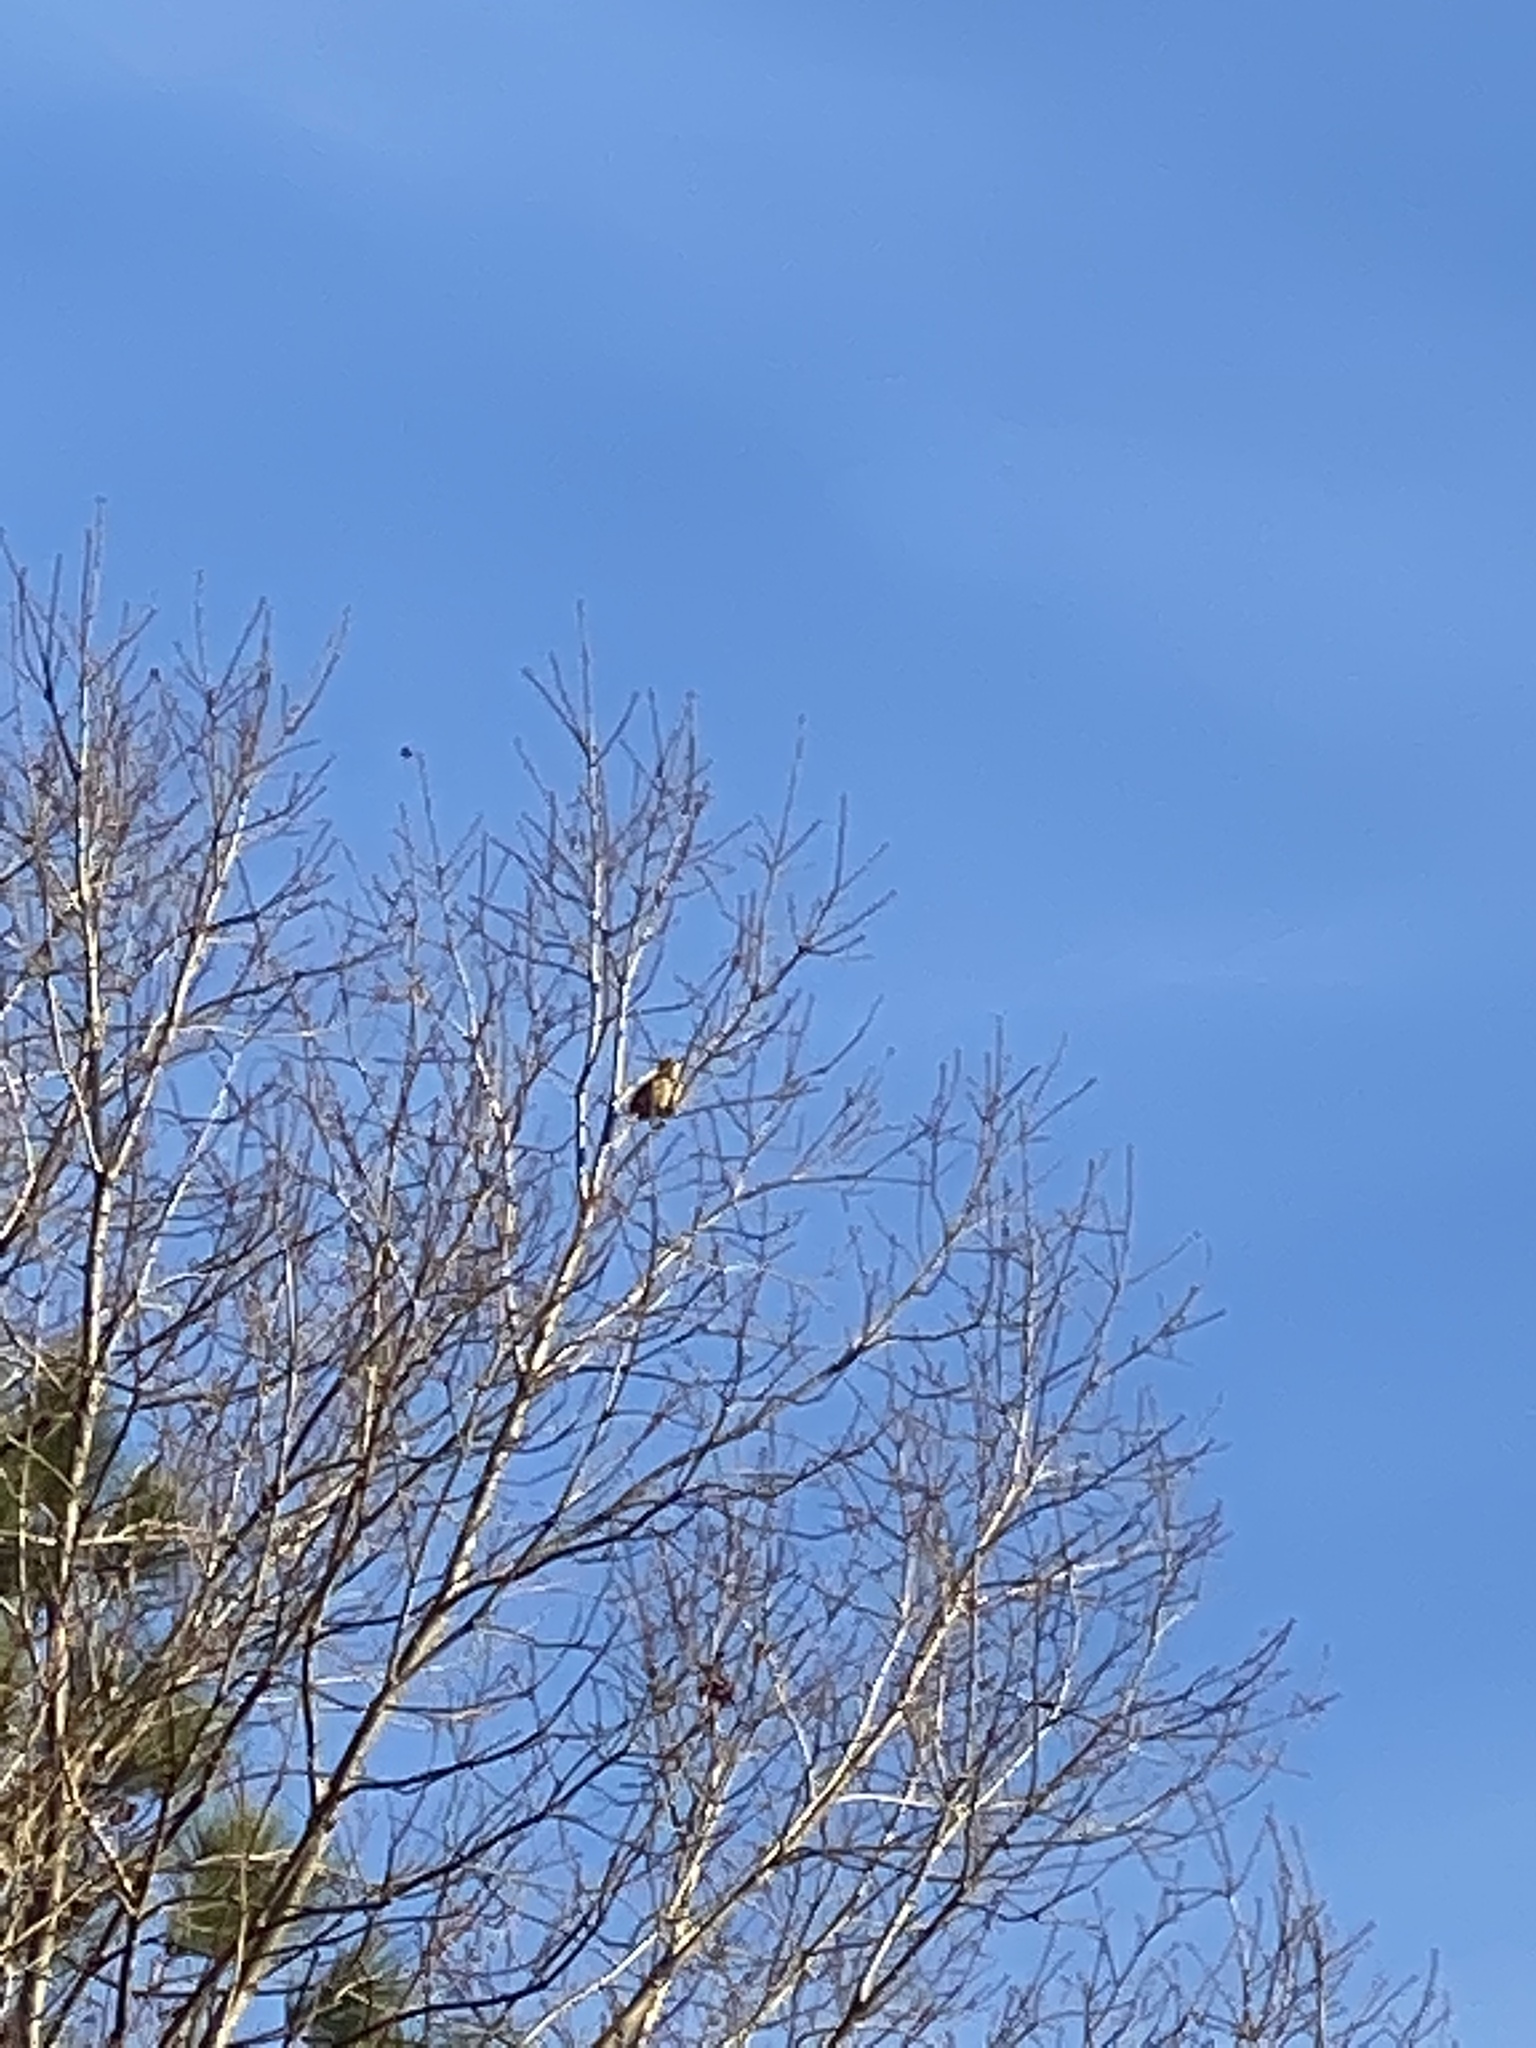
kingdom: Animalia
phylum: Chordata
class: Aves
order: Passeriformes
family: Mimidae
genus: Toxostoma
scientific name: Toxostoma rufum
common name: Brown thrasher
